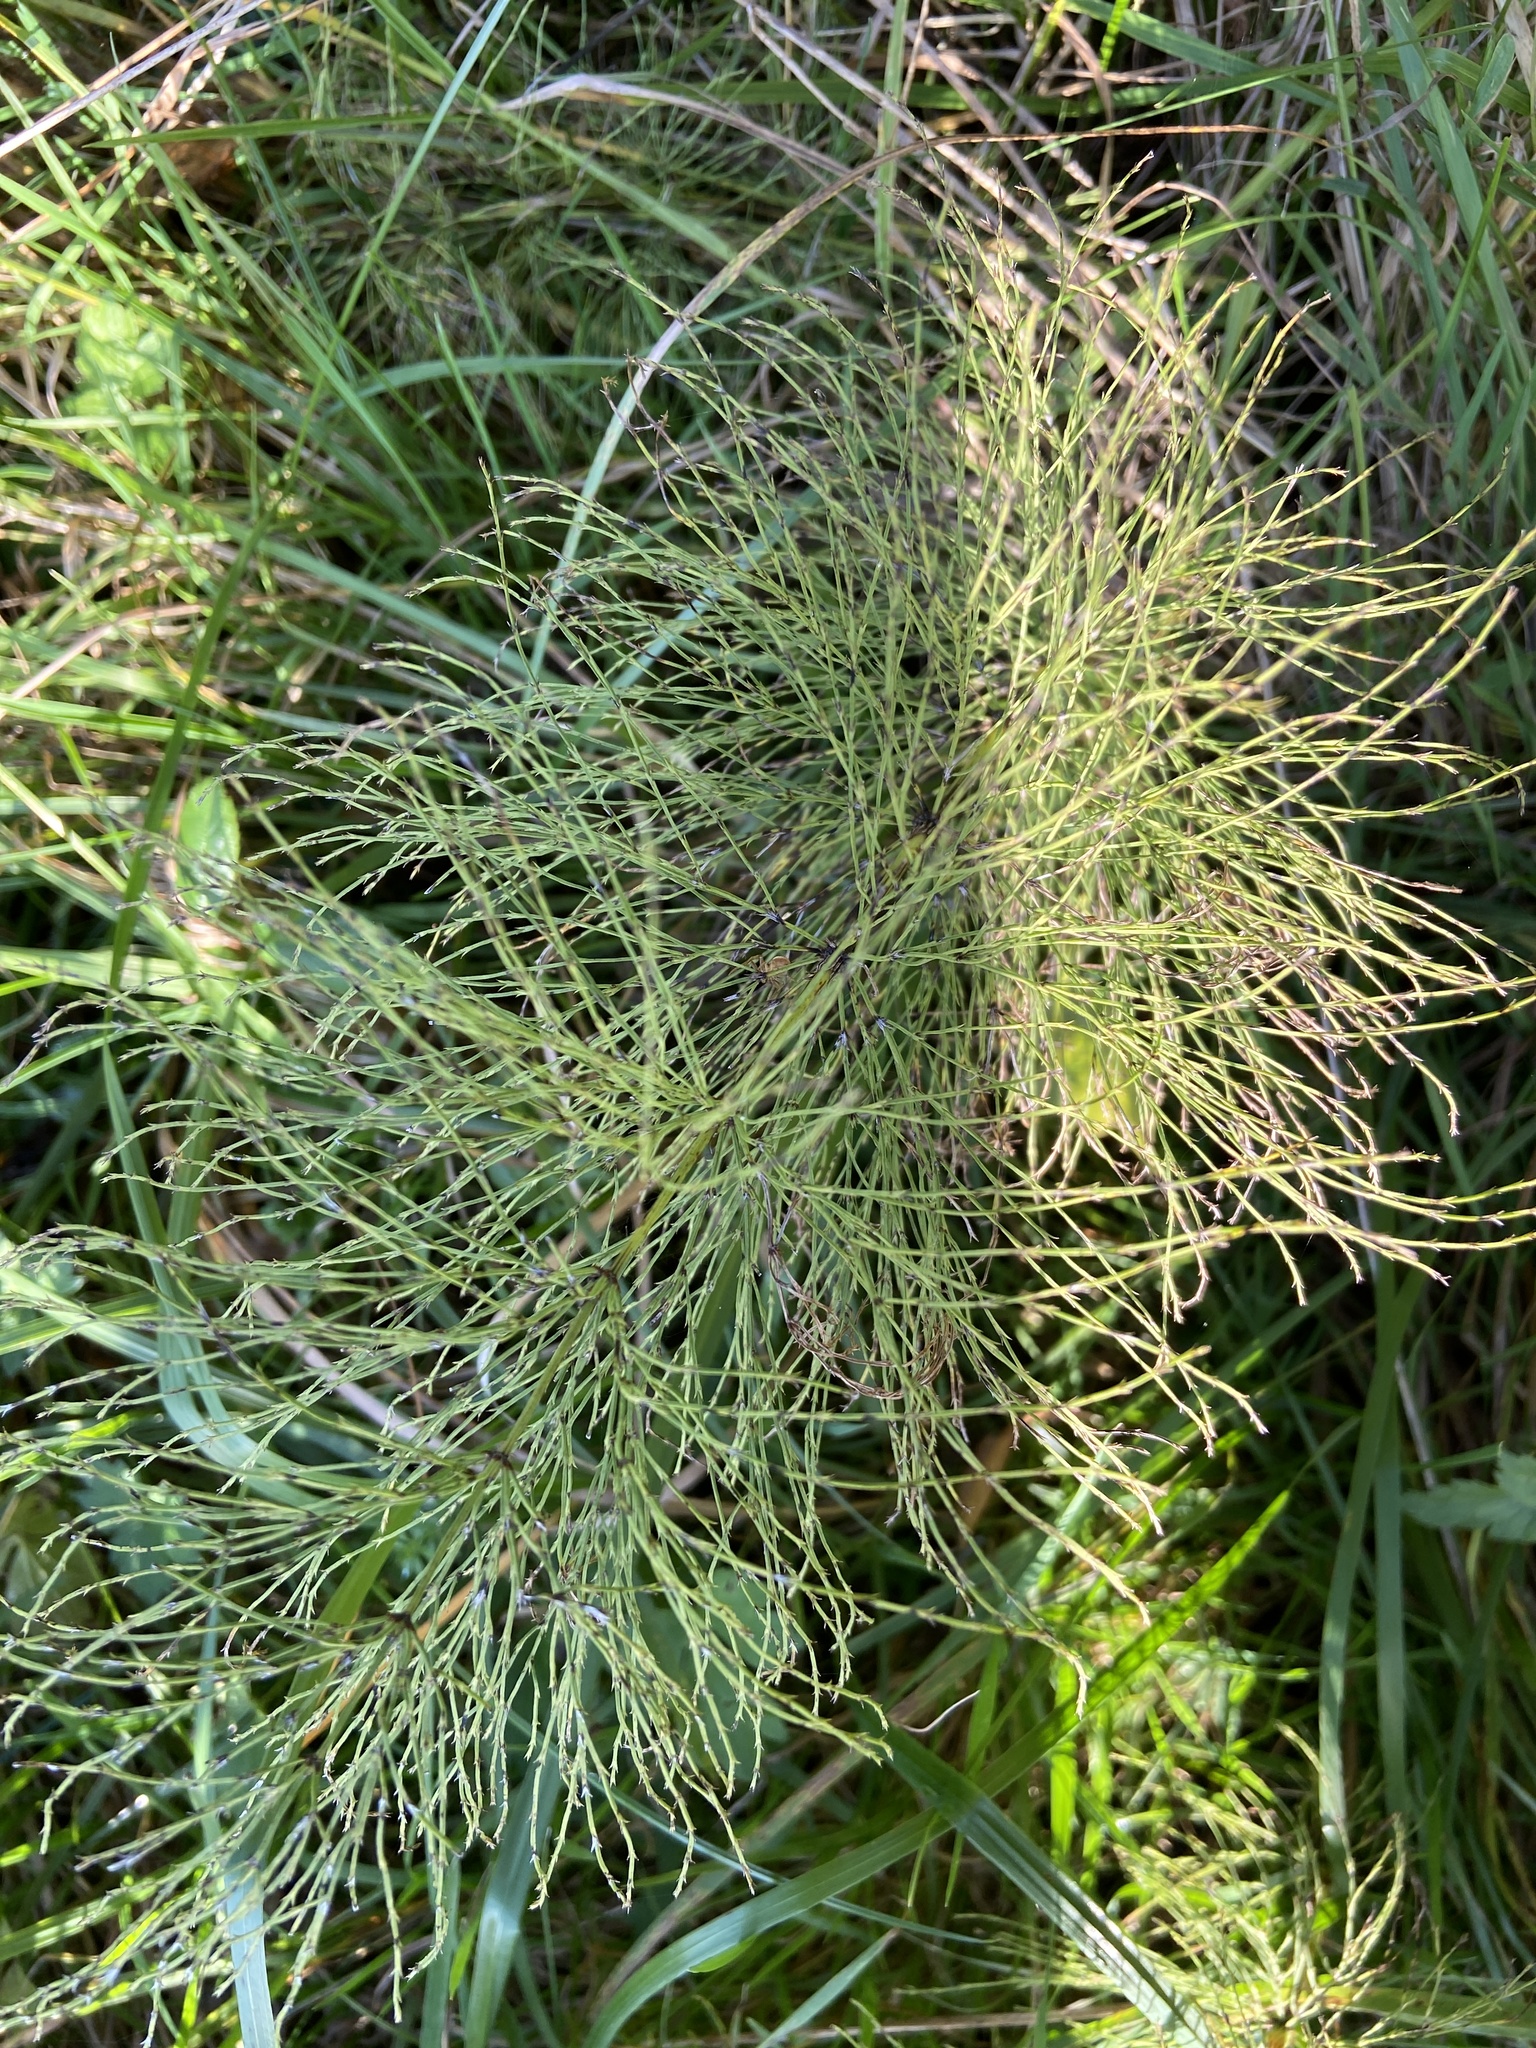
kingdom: Plantae
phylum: Tracheophyta
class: Polypodiopsida
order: Equisetales
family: Equisetaceae
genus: Equisetum
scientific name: Equisetum sylvaticum
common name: Wood horsetail
